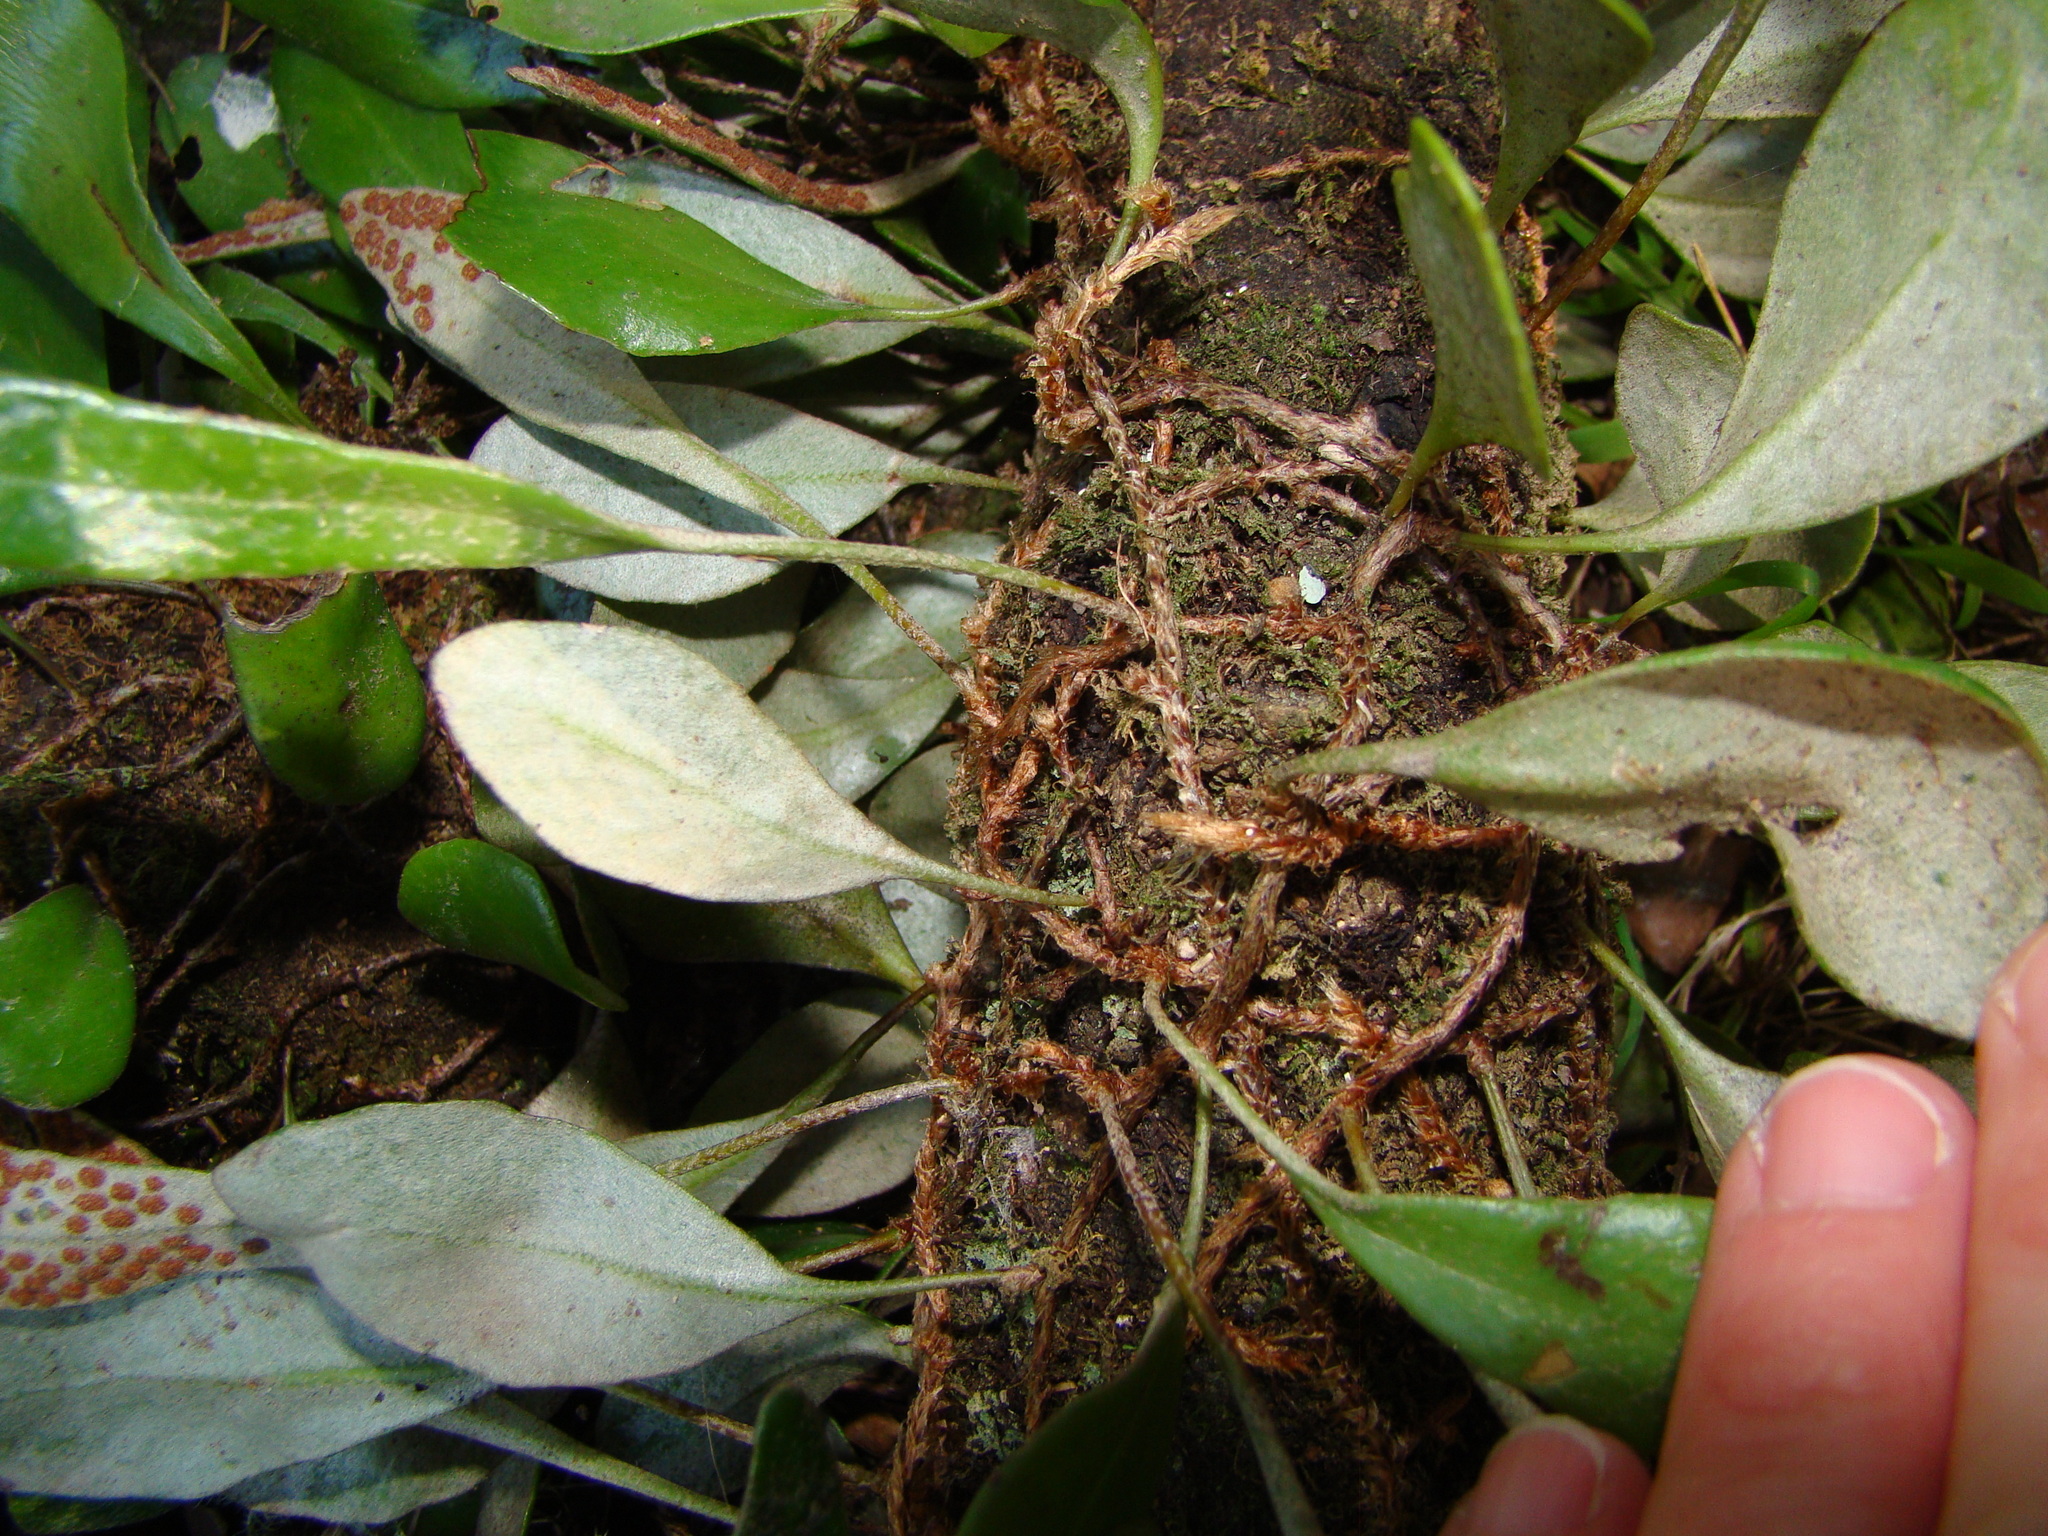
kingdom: Plantae
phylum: Tracheophyta
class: Polypodiopsida
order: Polypodiales
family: Polypodiaceae
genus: Pyrrosia
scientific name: Pyrrosia eleagnifolia
